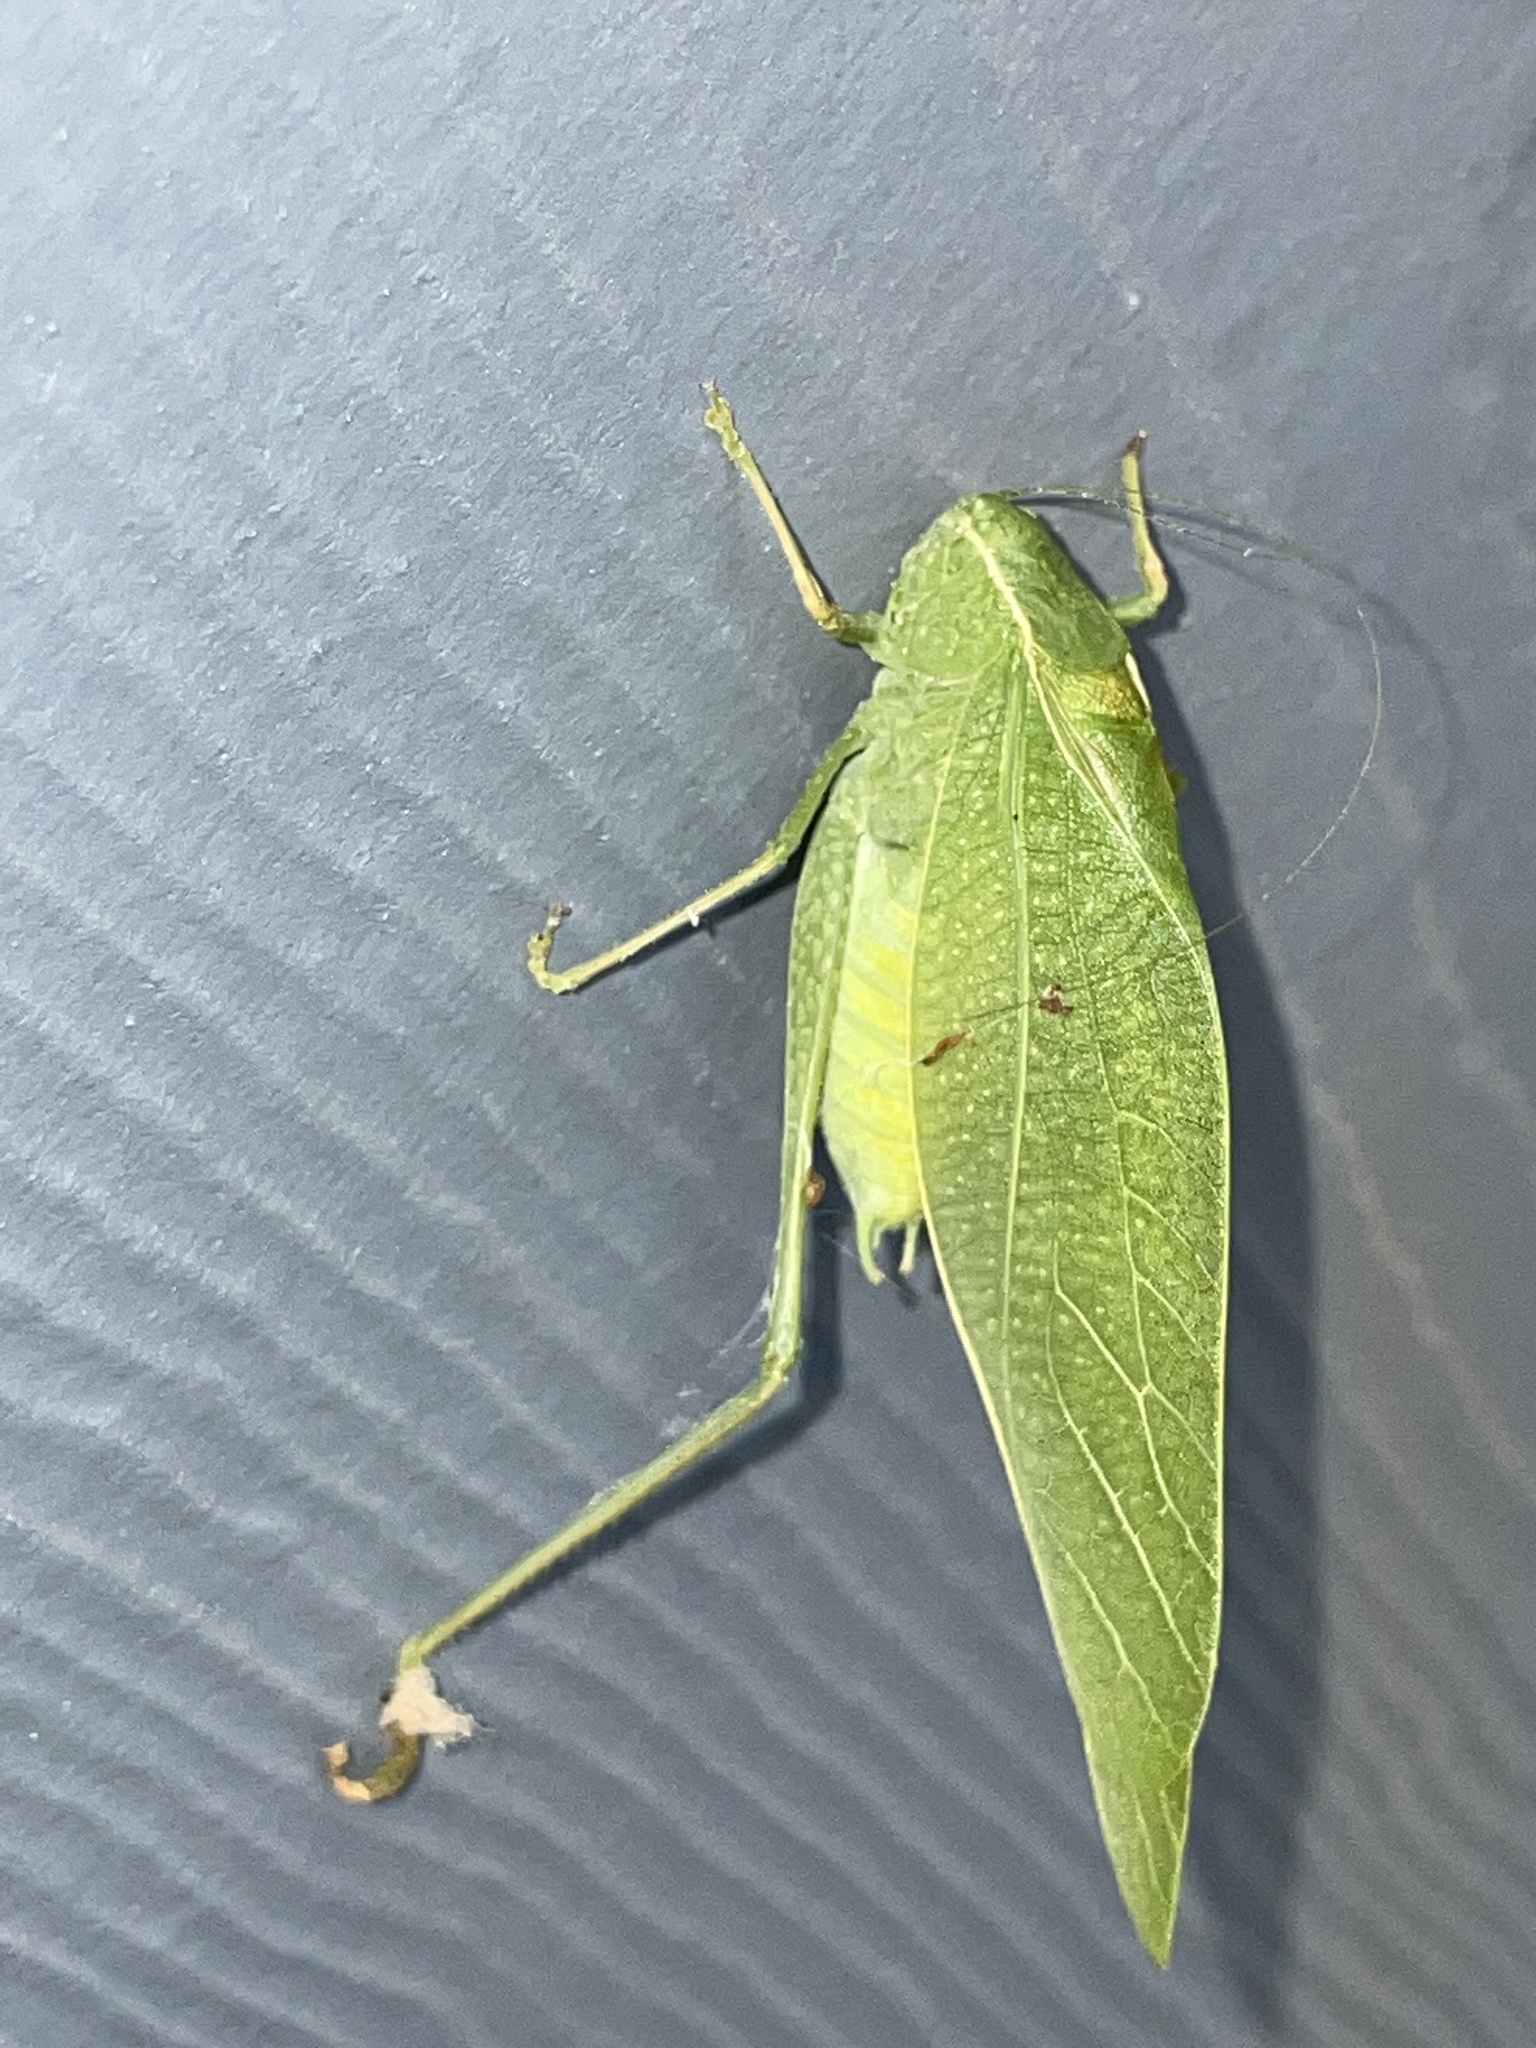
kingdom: Animalia
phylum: Arthropoda
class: Insecta
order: Orthoptera
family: Tettigoniidae
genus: Microcentrum
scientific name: Microcentrum rhombifolium
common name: Broad-winged katydid
